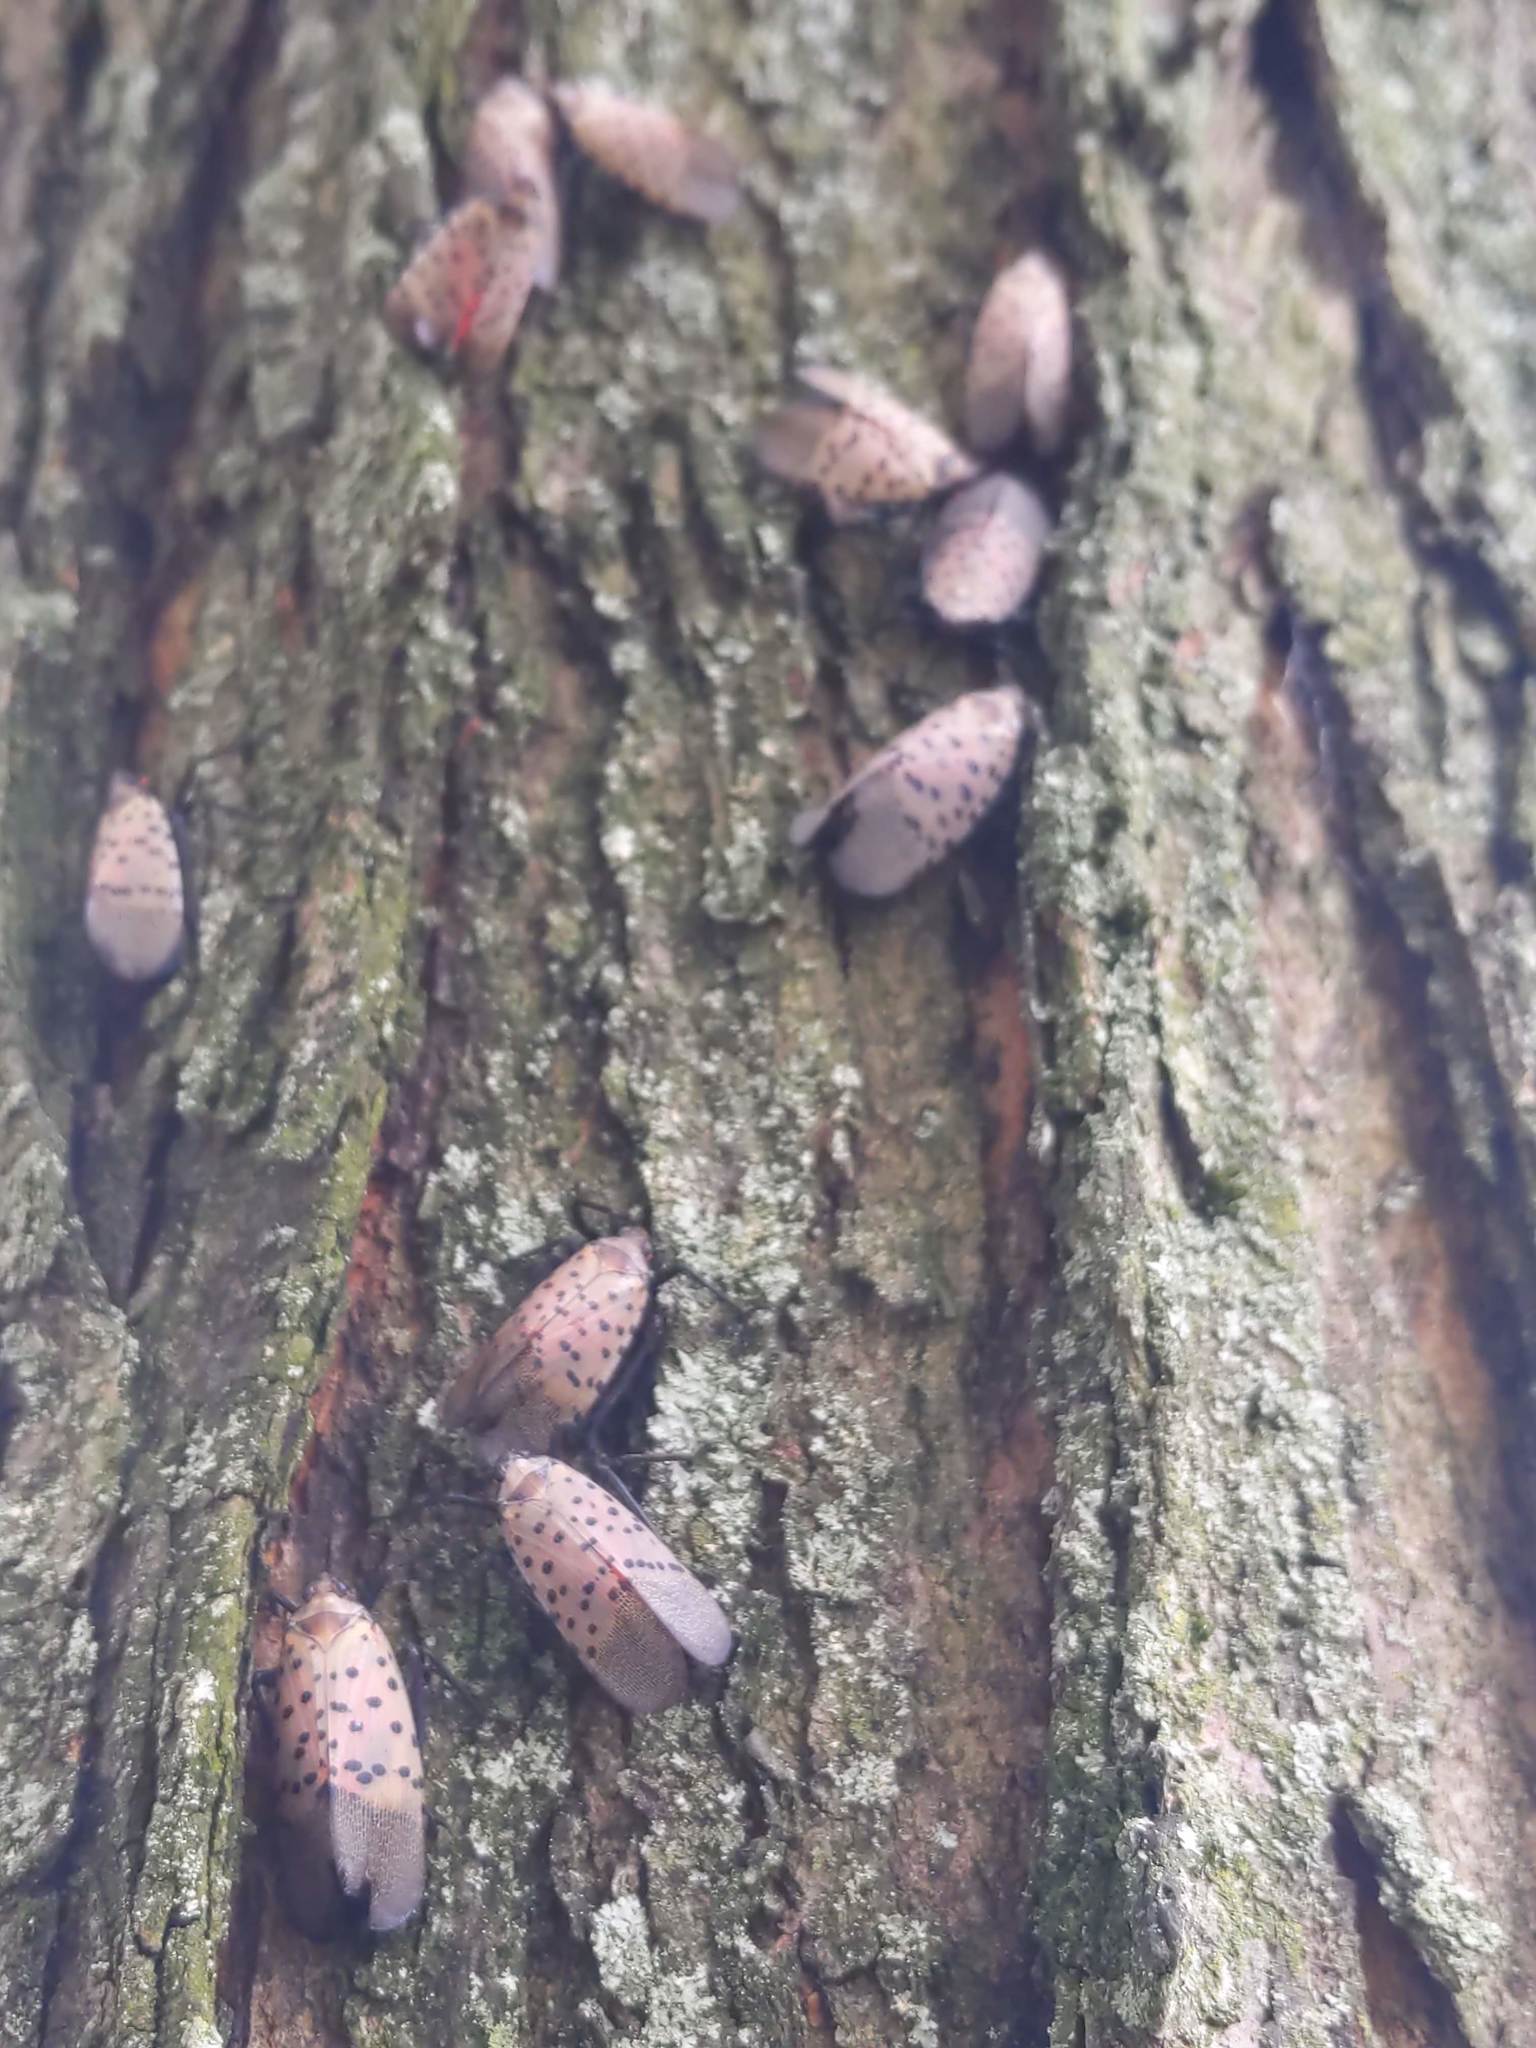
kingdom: Animalia
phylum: Arthropoda
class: Insecta
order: Hemiptera
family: Fulgoridae
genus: Lycorma
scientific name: Lycorma delicatula
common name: Spotted lanternfly
